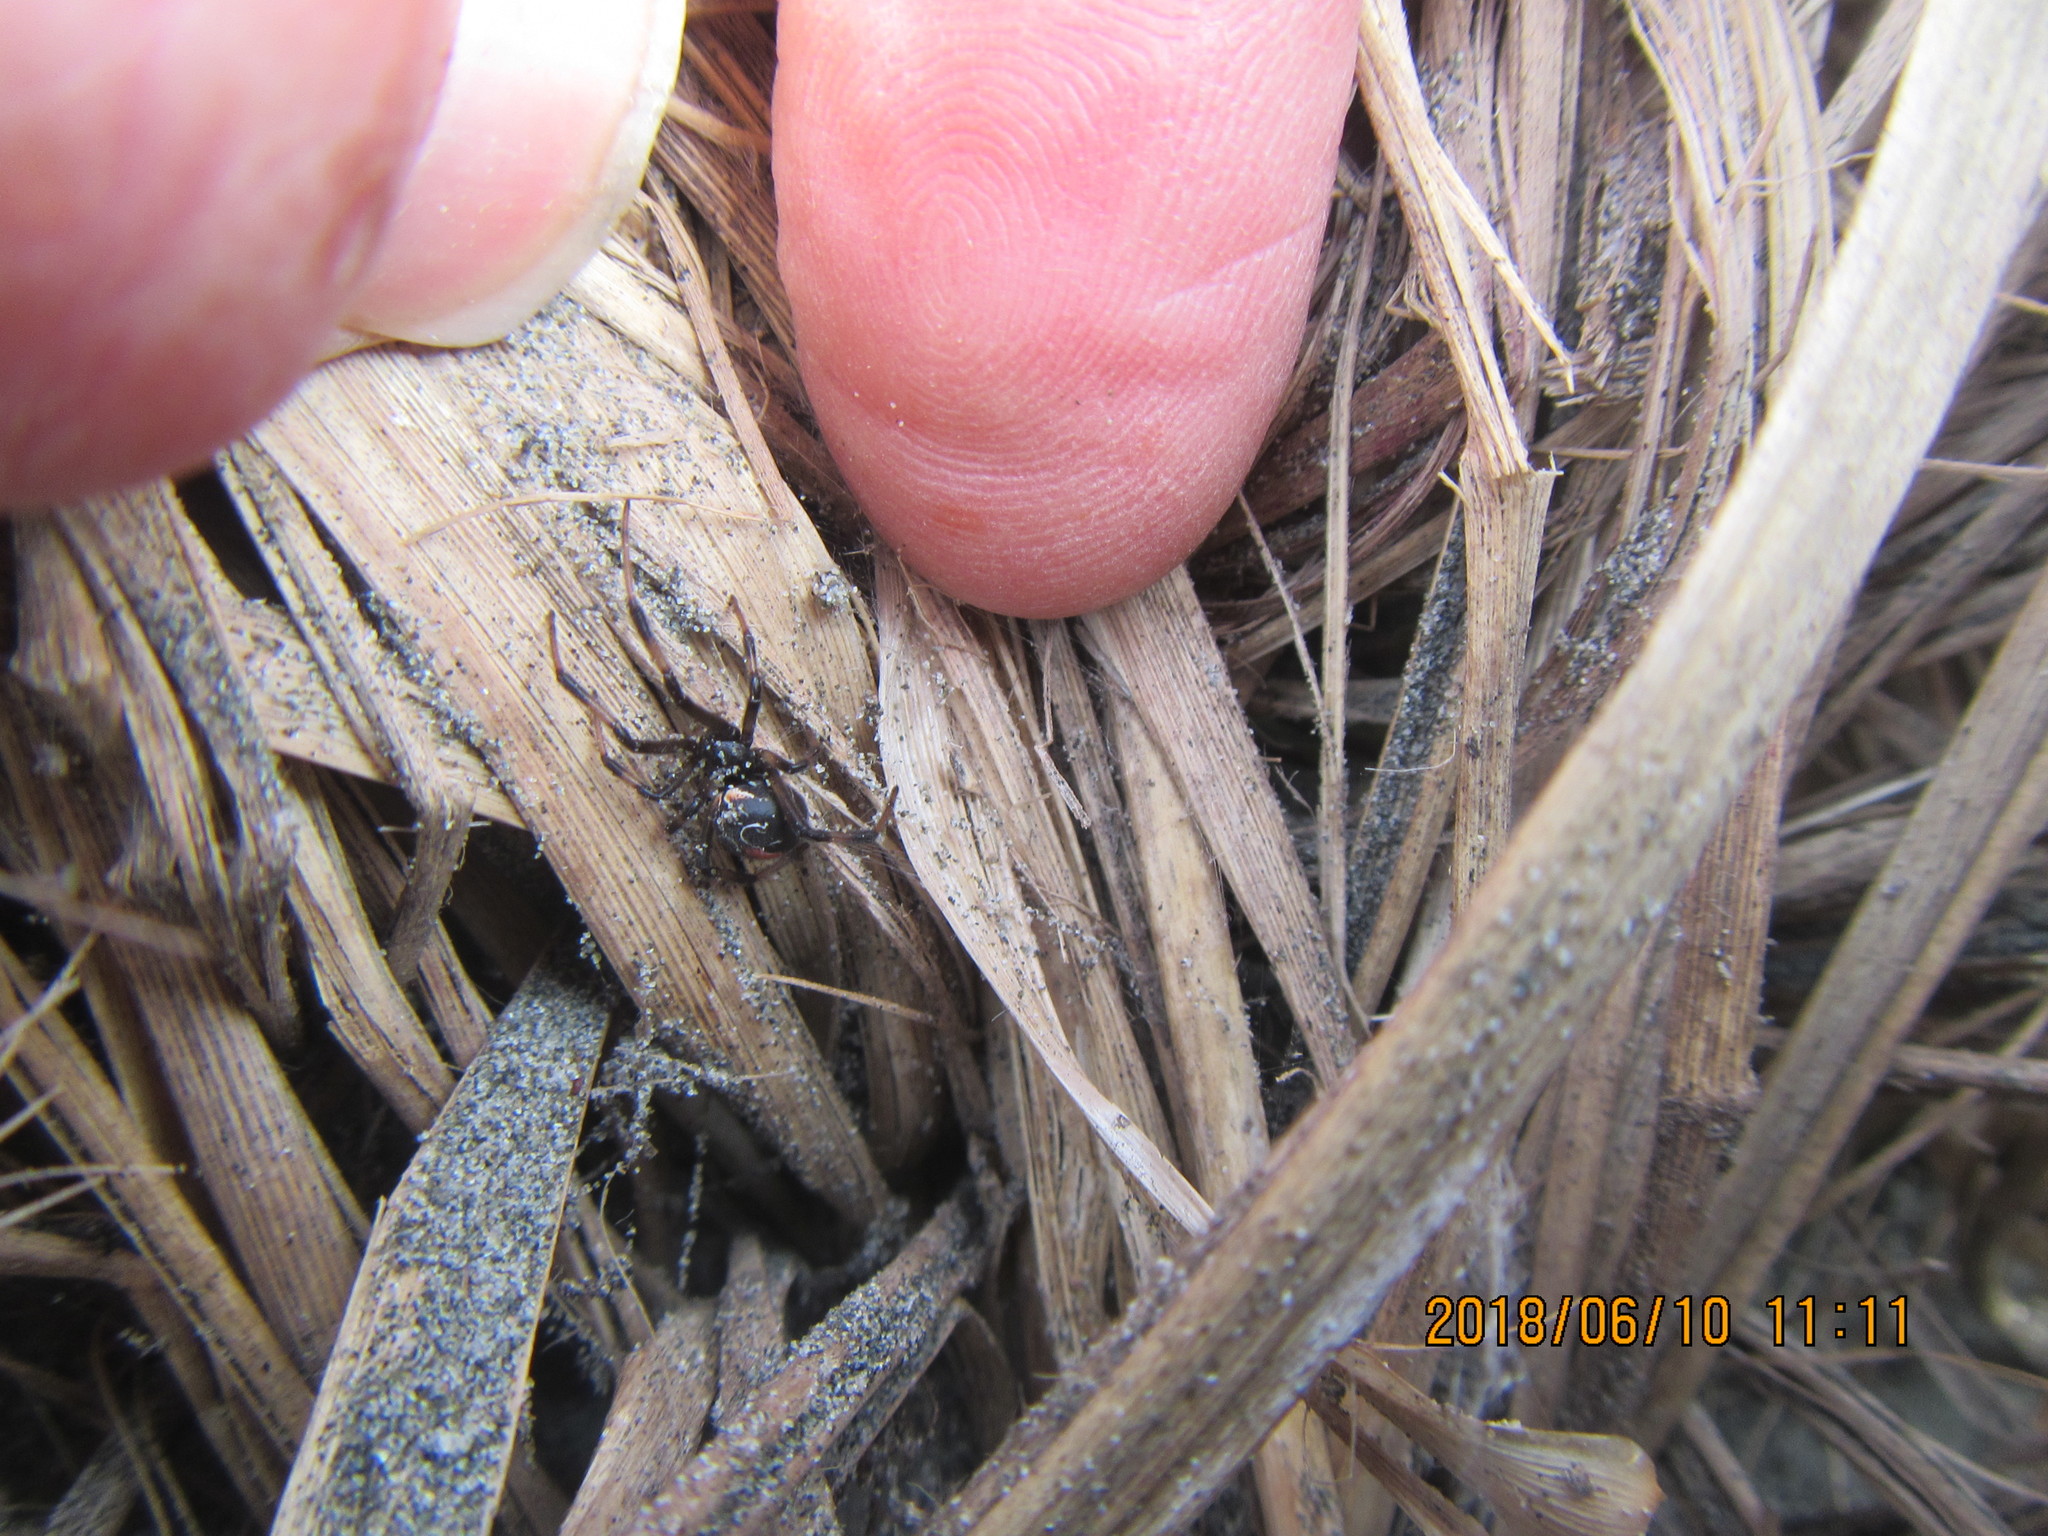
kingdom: Animalia
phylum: Arthropoda
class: Arachnida
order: Araneae
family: Thomisidae
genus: Sidymella
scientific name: Sidymella trapezia
